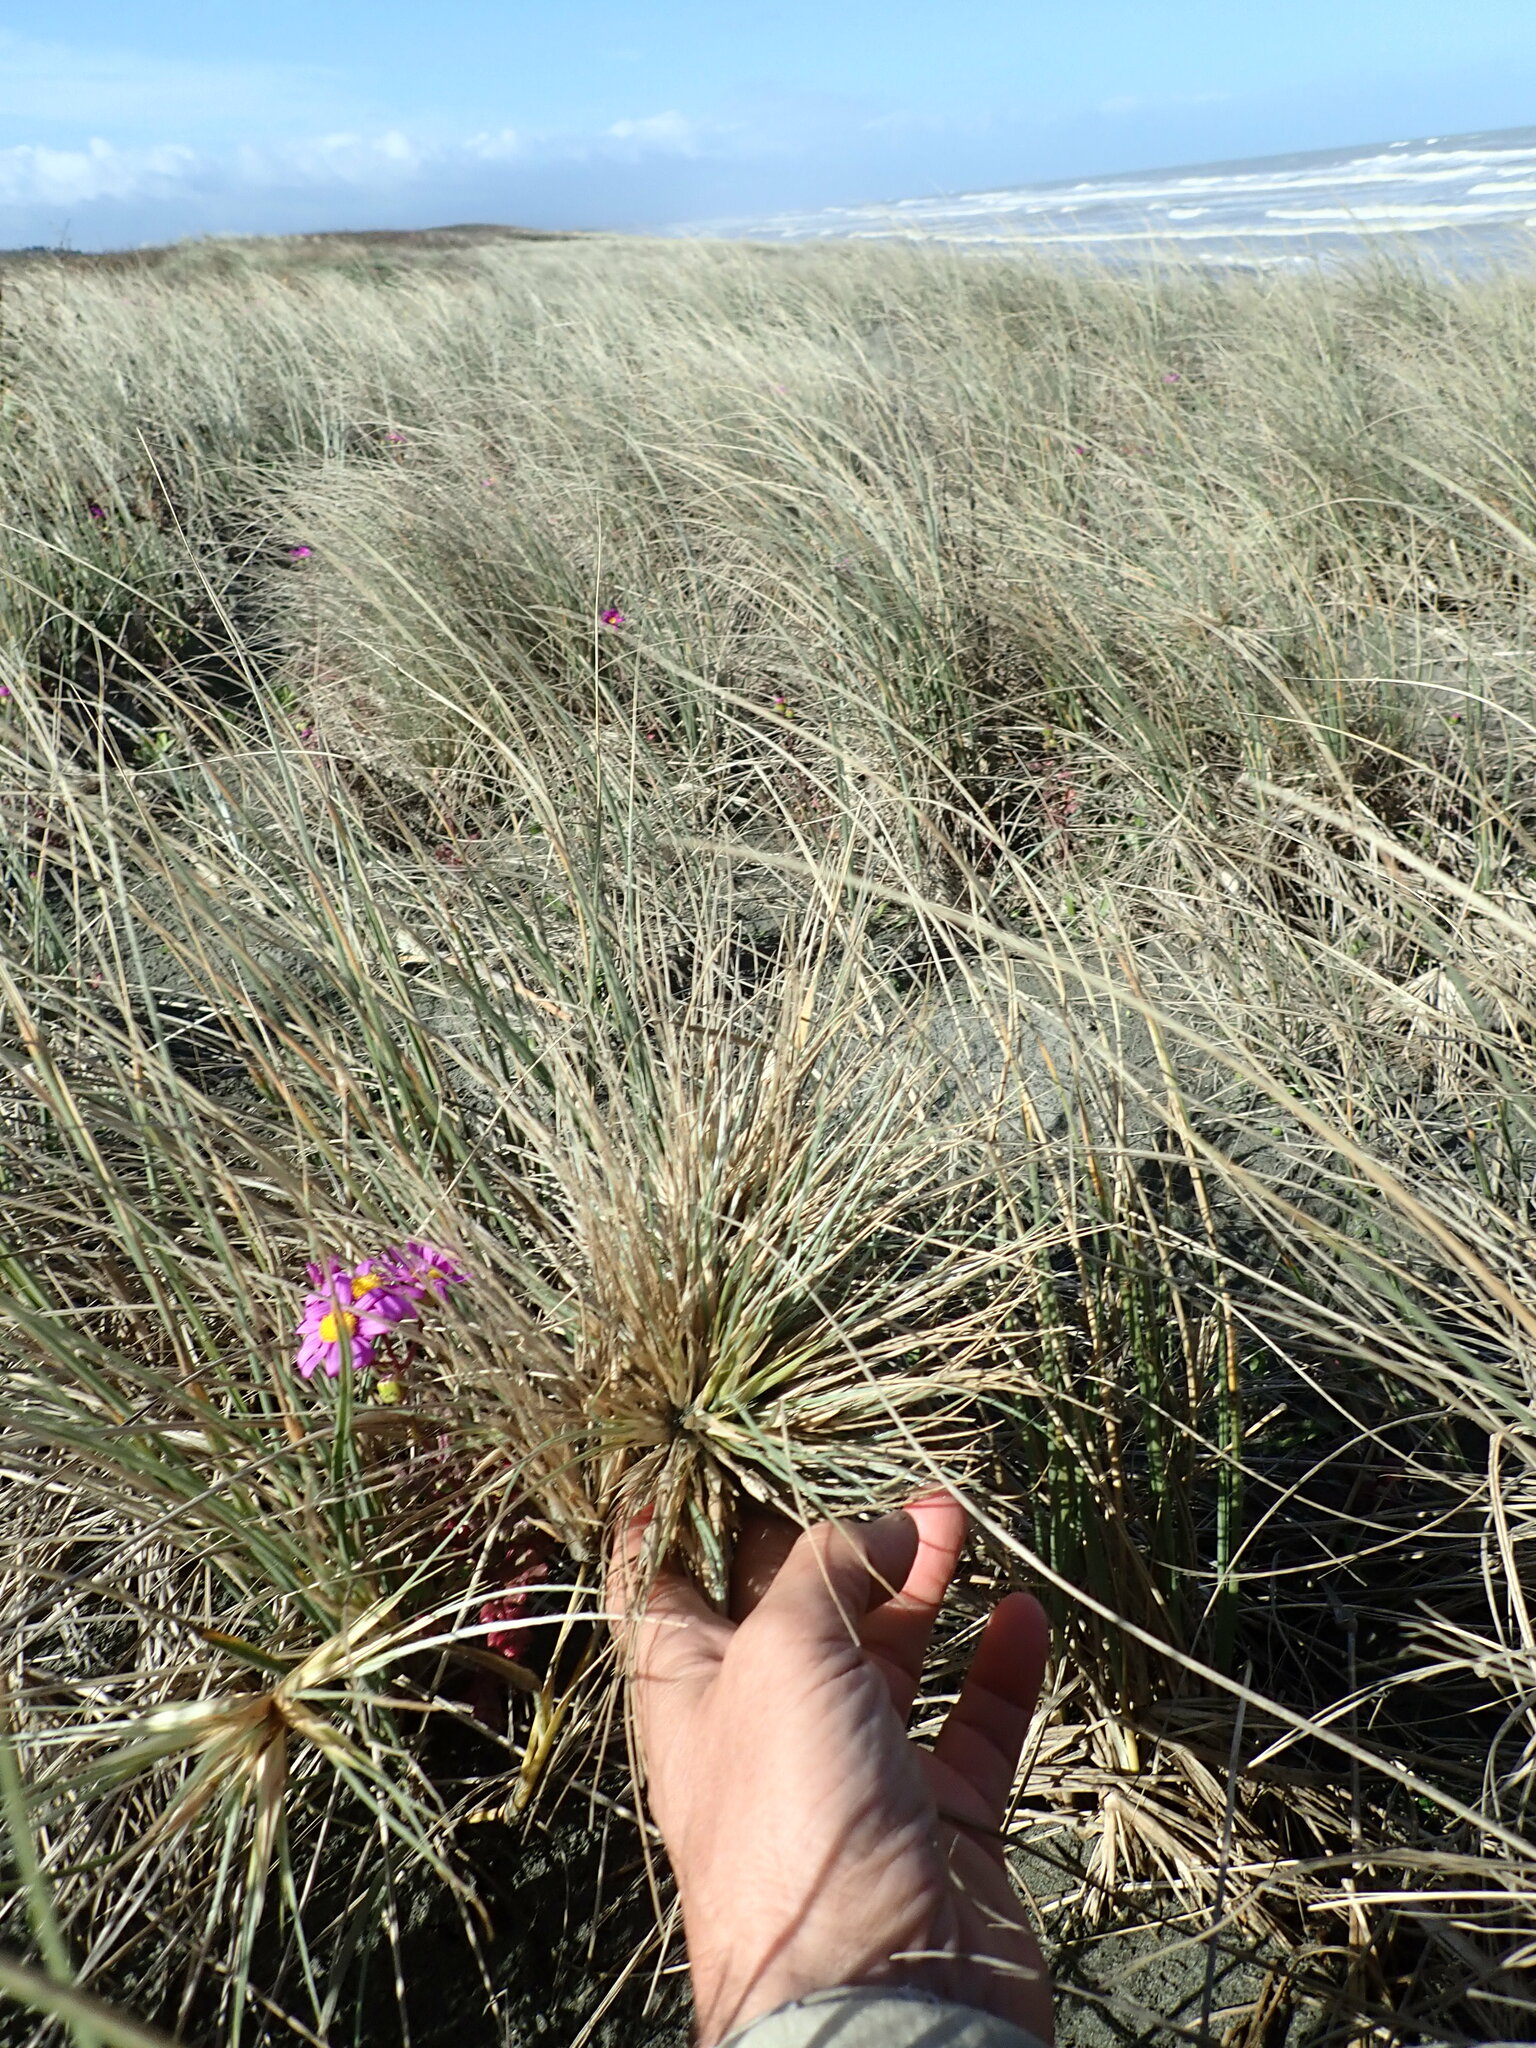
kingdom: Plantae
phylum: Tracheophyta
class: Liliopsida
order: Poales
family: Poaceae
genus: Spinifex
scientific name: Spinifex sericeus
